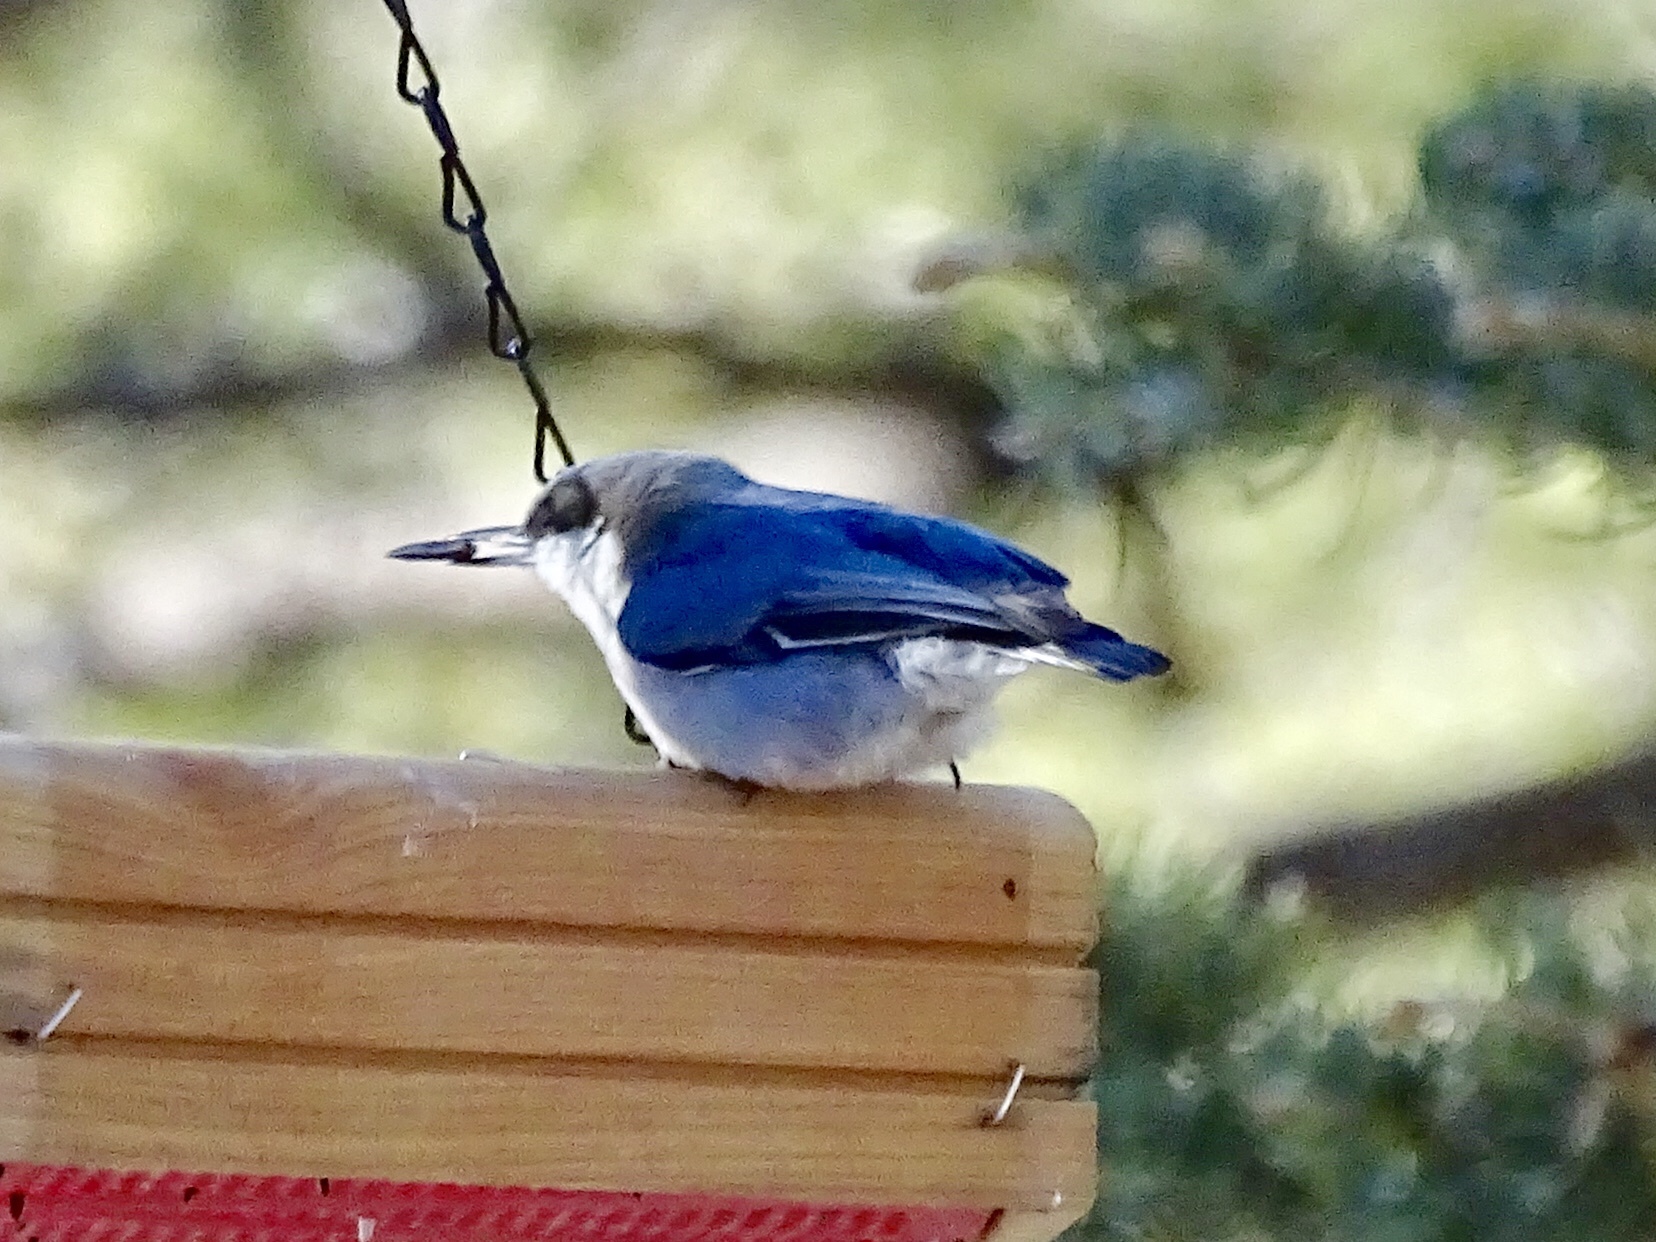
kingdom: Animalia
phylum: Chordata
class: Aves
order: Passeriformes
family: Sittidae
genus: Sitta
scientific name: Sitta pygmaea
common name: Pygmy nuthatch
